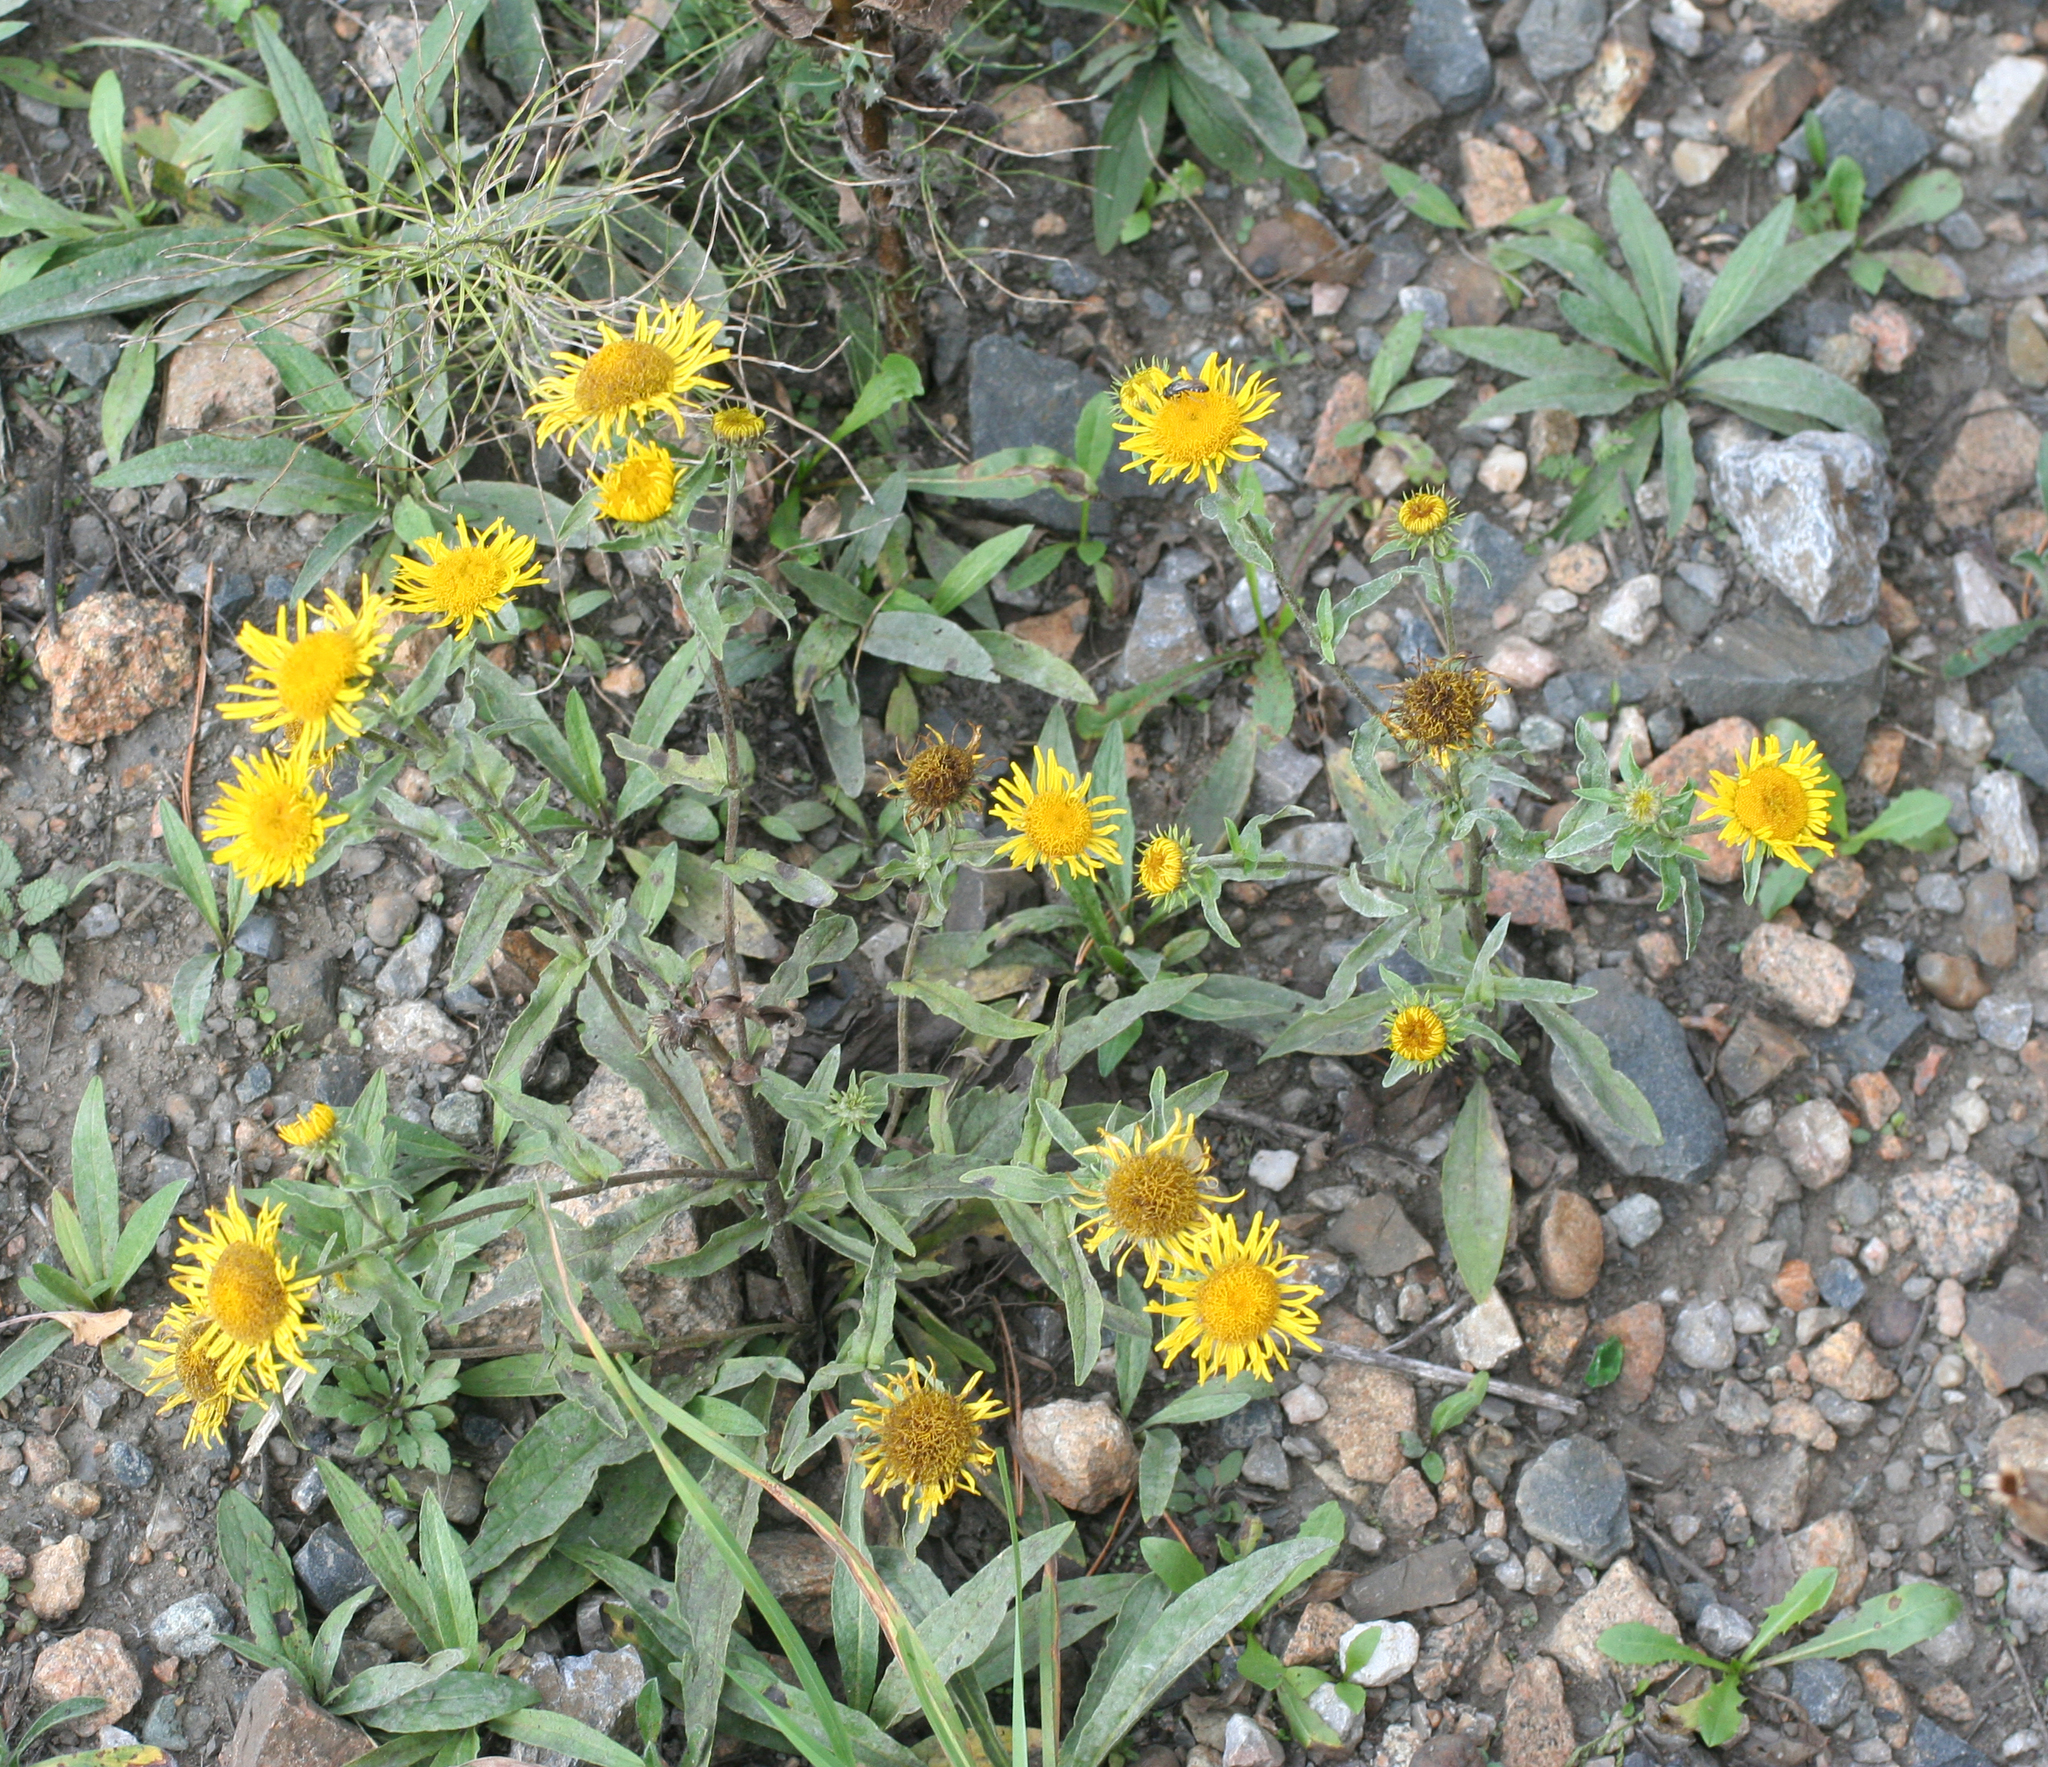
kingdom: Plantae
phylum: Tracheophyta
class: Magnoliopsida
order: Asterales
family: Asteraceae
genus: Pentanema
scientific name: Pentanema britannicum
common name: British elecampane
